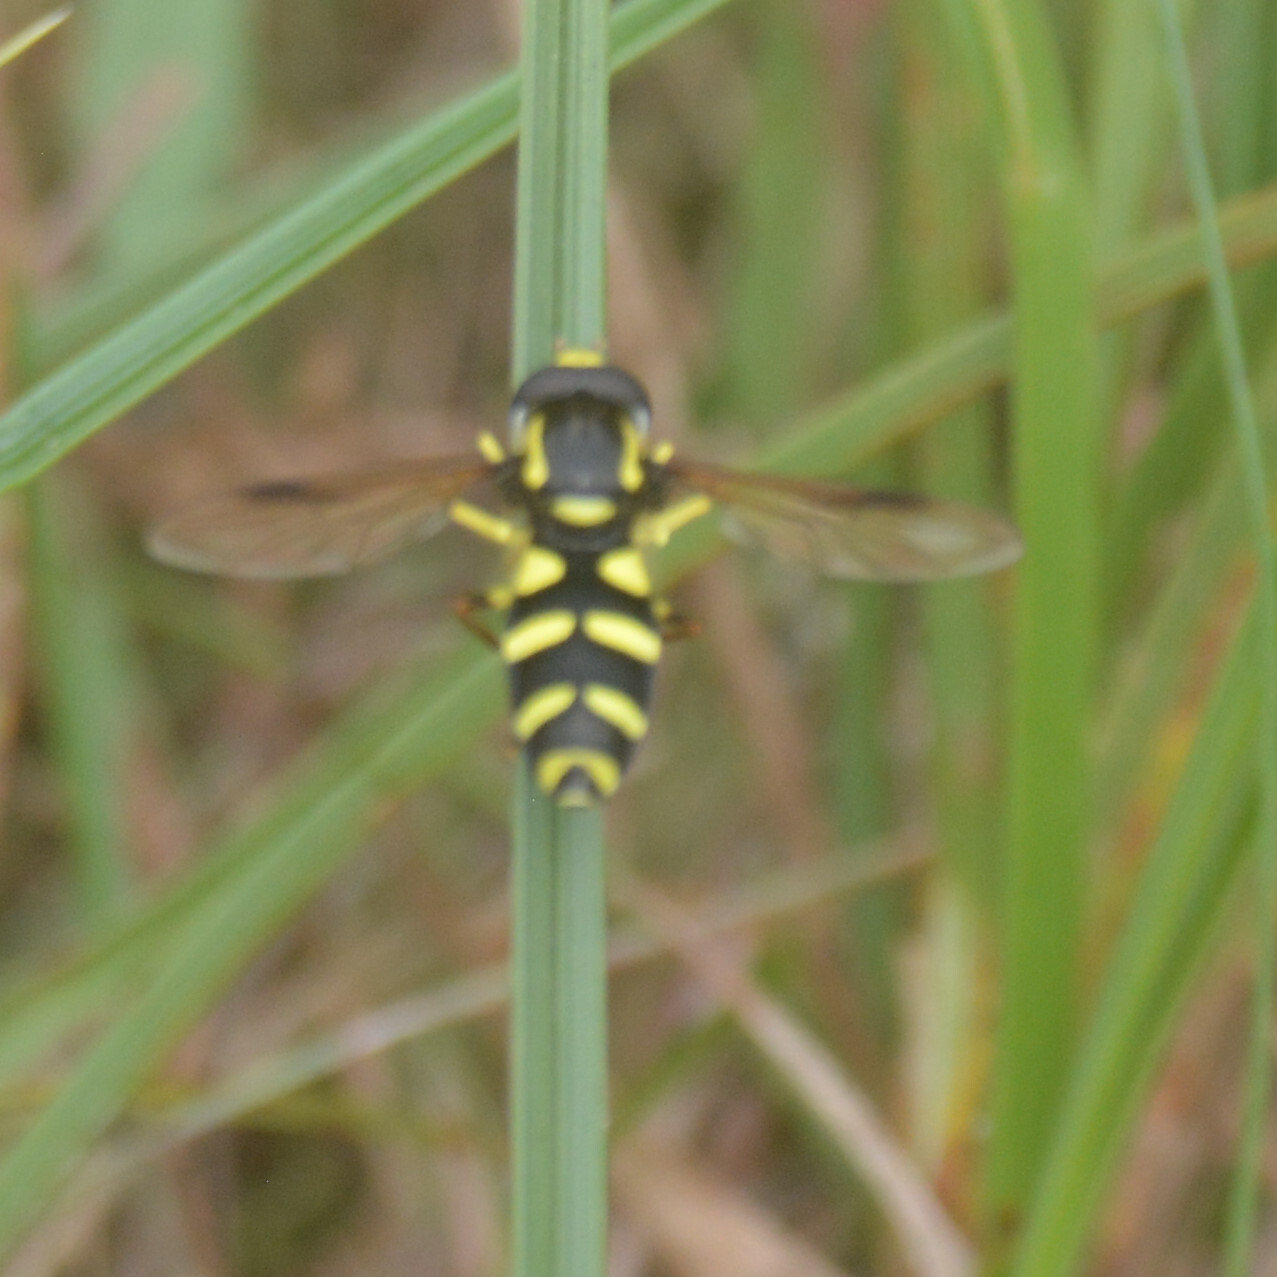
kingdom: Animalia
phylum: Arthropoda
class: Insecta
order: Diptera
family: Syrphidae
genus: Xanthogramma
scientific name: Xanthogramma
